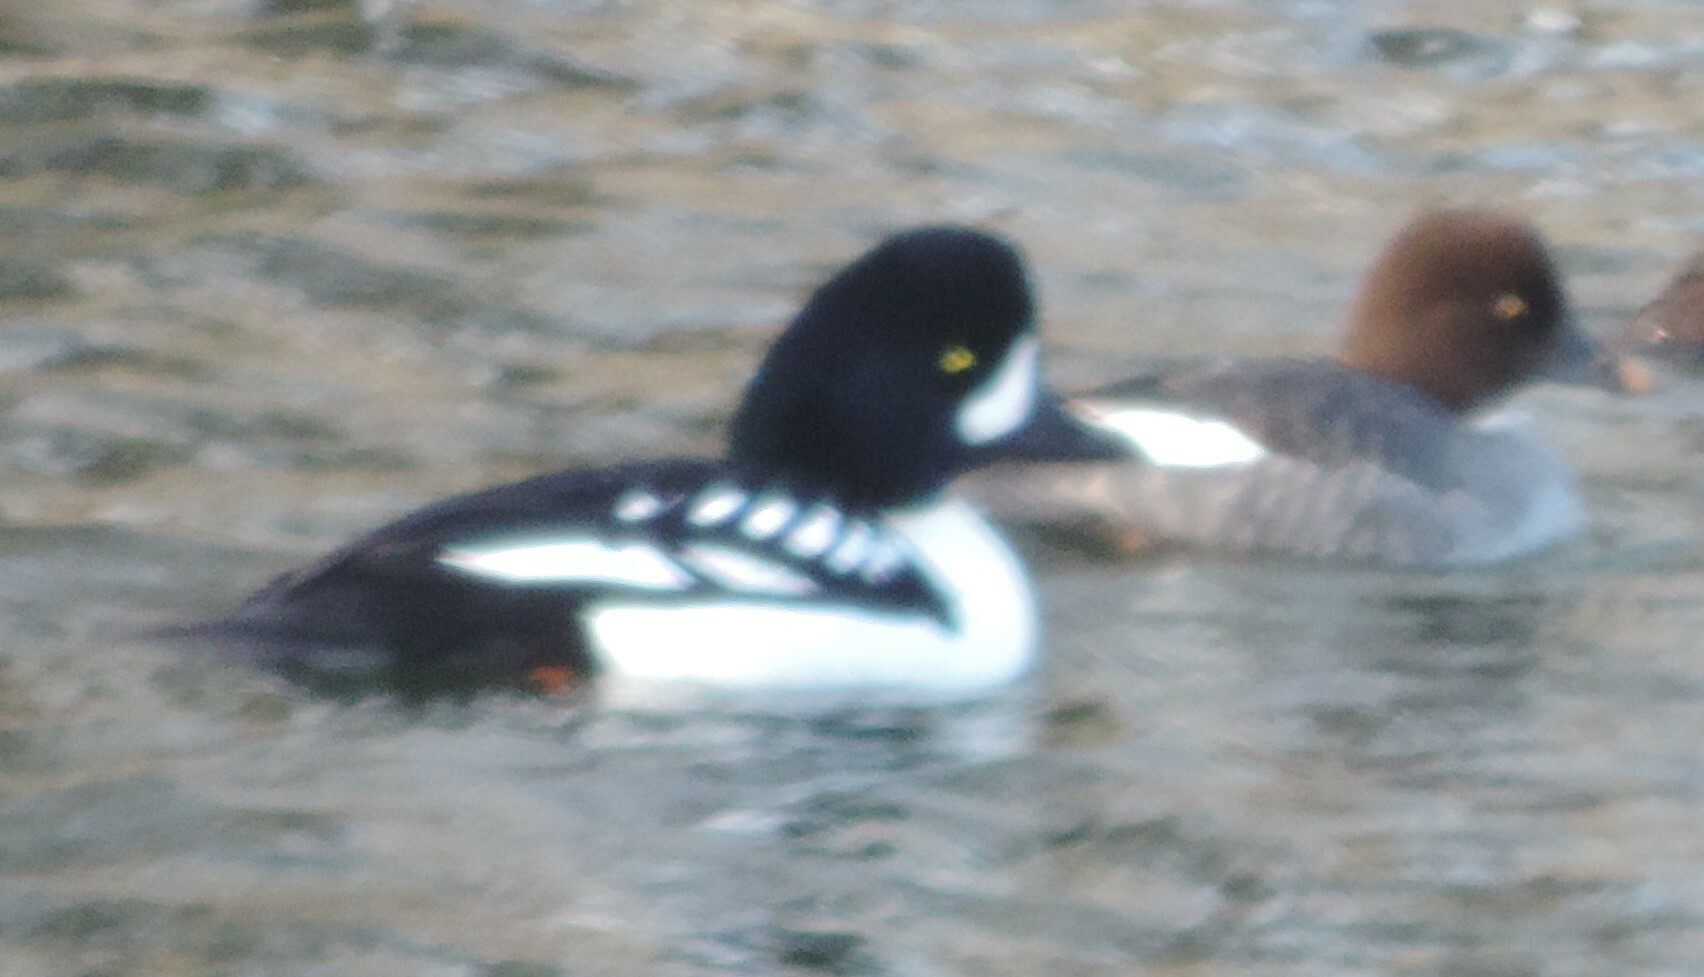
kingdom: Animalia
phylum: Chordata
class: Aves
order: Anseriformes
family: Anatidae
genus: Bucephala
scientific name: Bucephala islandica
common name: Barrow's goldeneye
